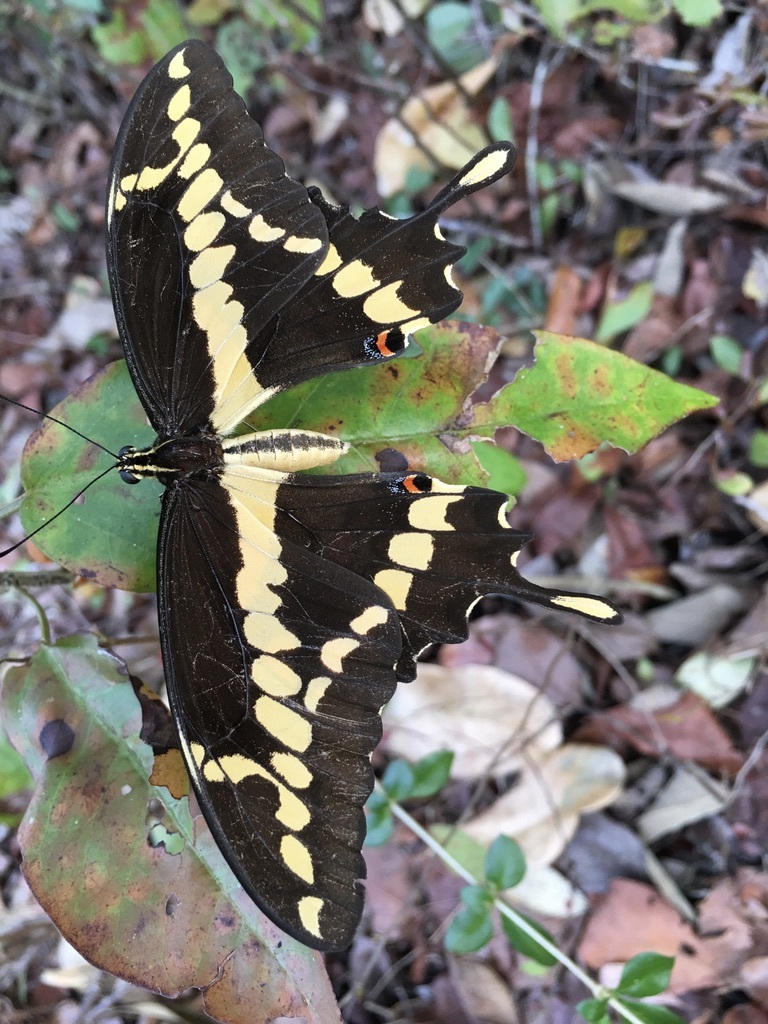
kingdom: Animalia
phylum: Arthropoda
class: Insecta
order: Lepidoptera
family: Papilionidae
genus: Papilio
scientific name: Papilio rumiko
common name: Western giant swallowtail
